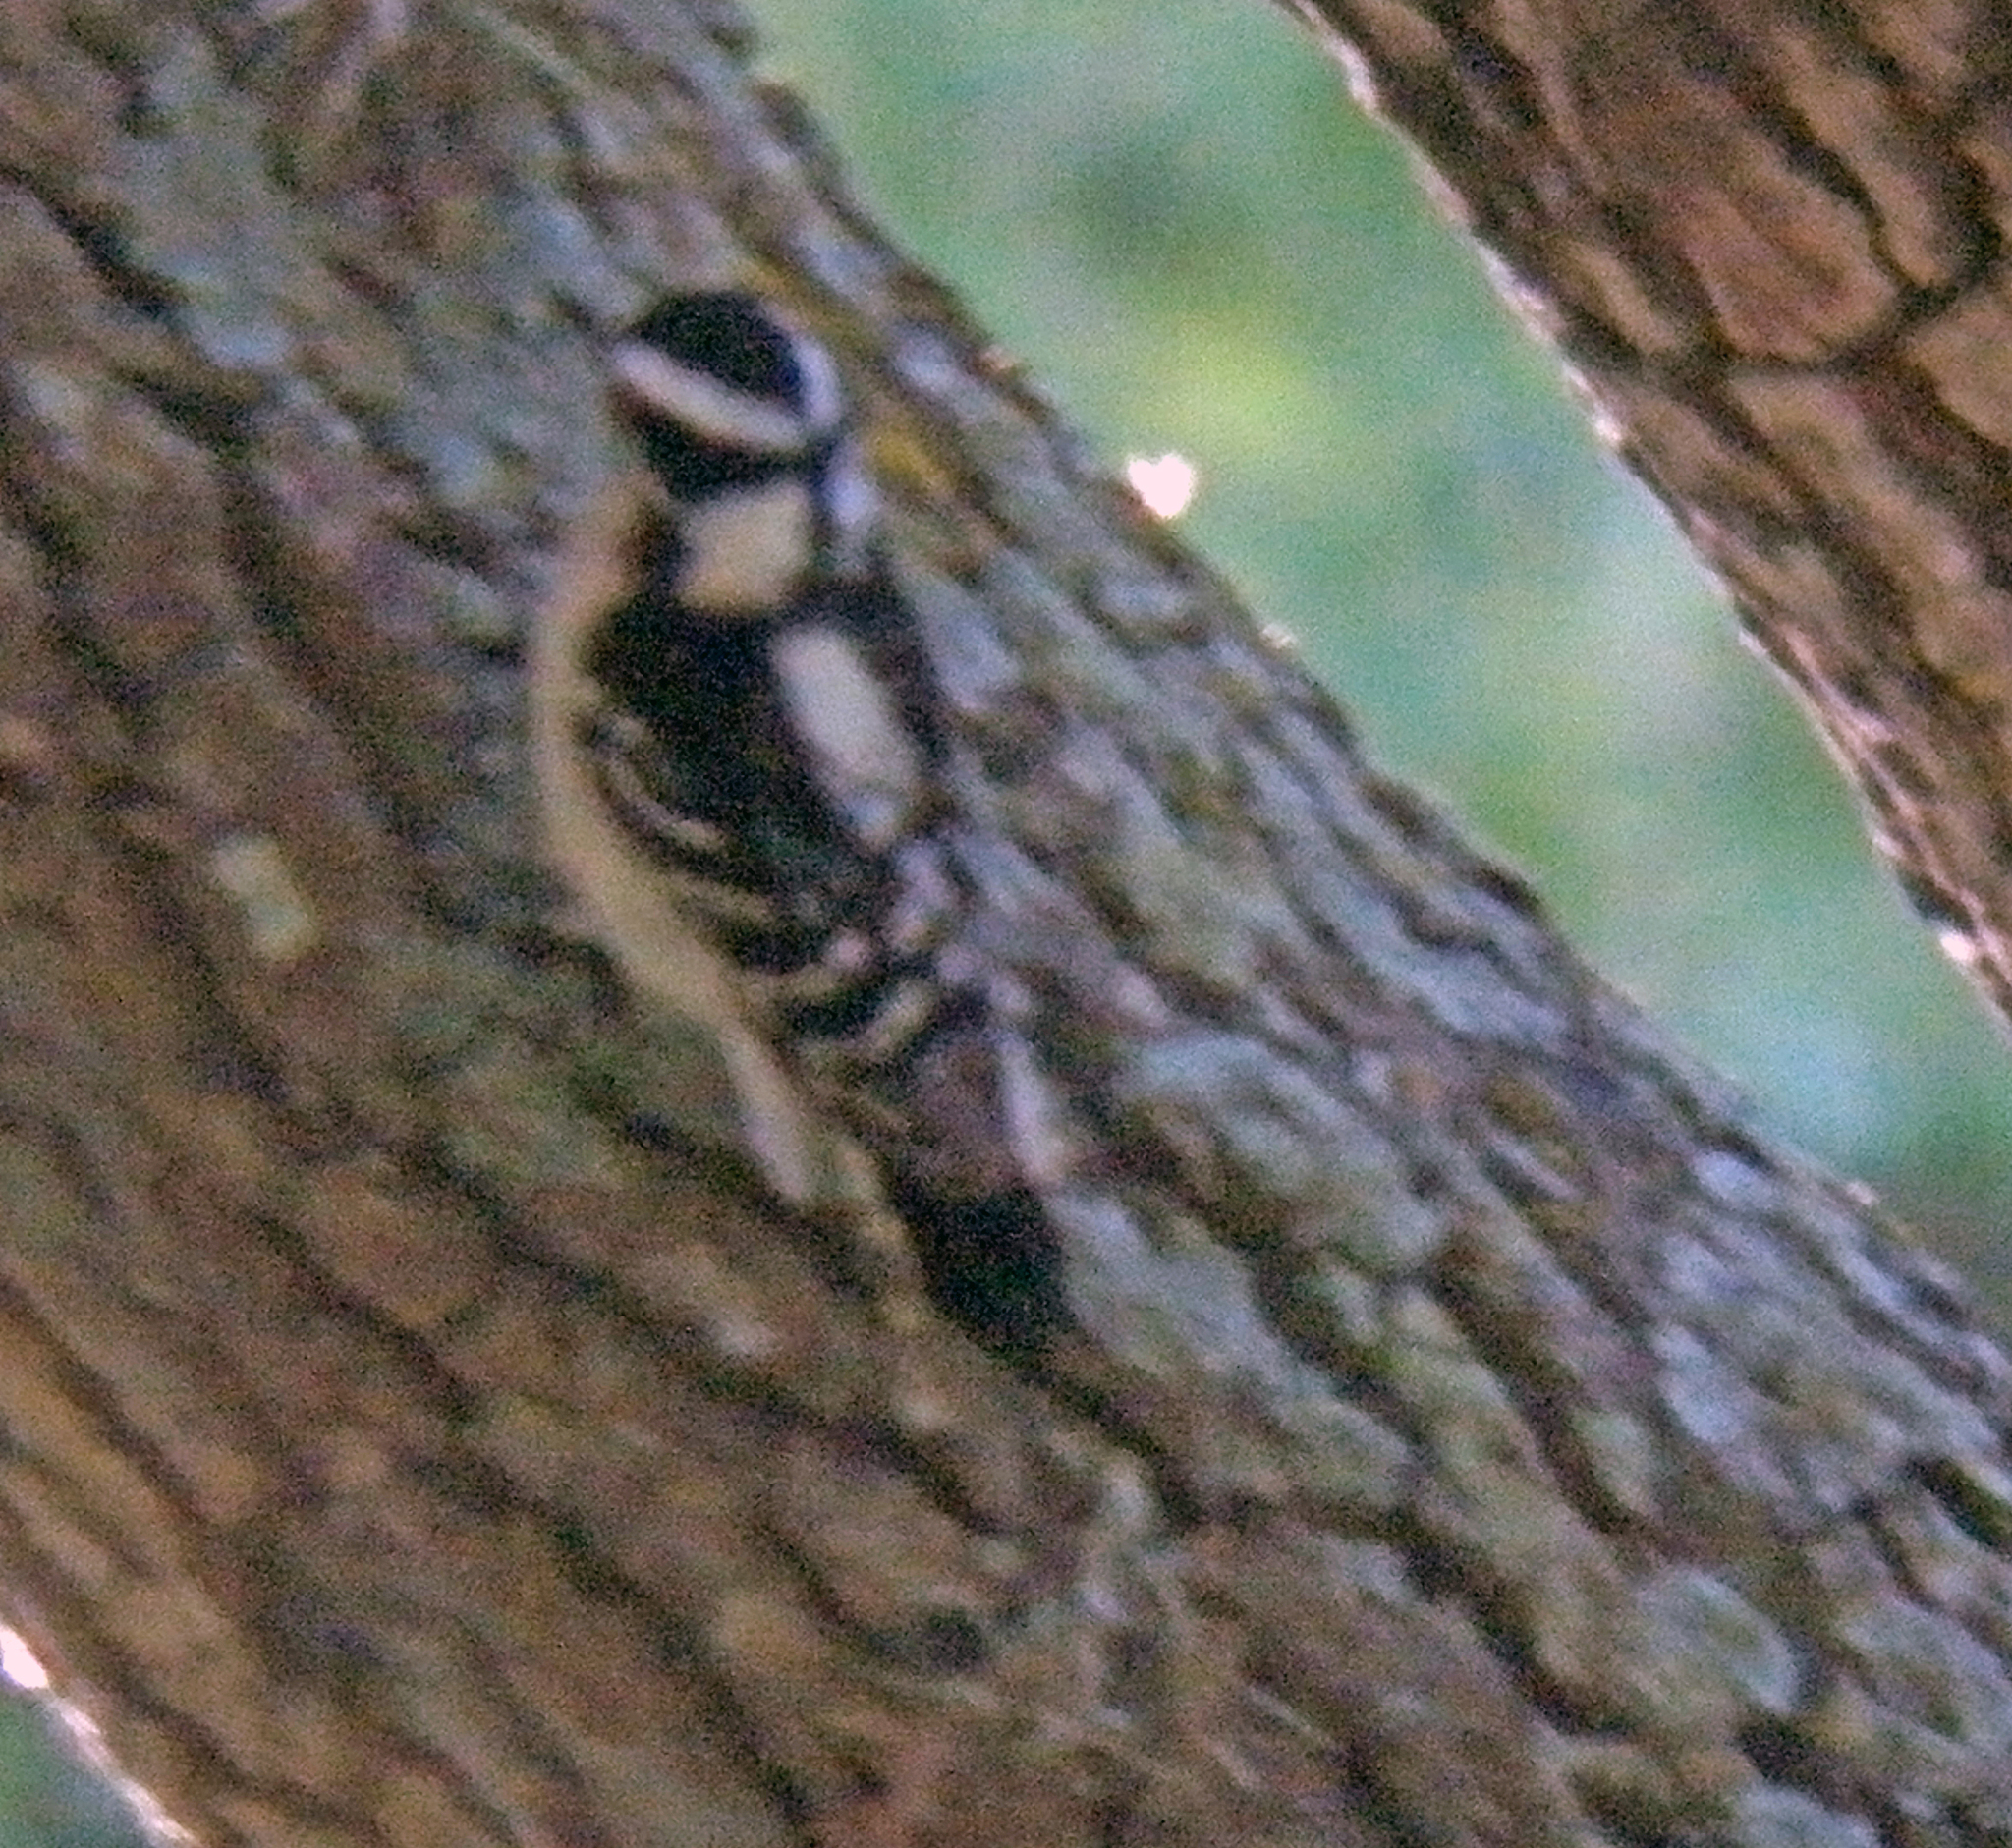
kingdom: Animalia
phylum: Chordata
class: Aves
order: Piciformes
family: Picidae
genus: Dryobates
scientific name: Dryobates pubescens
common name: Downy woodpecker
